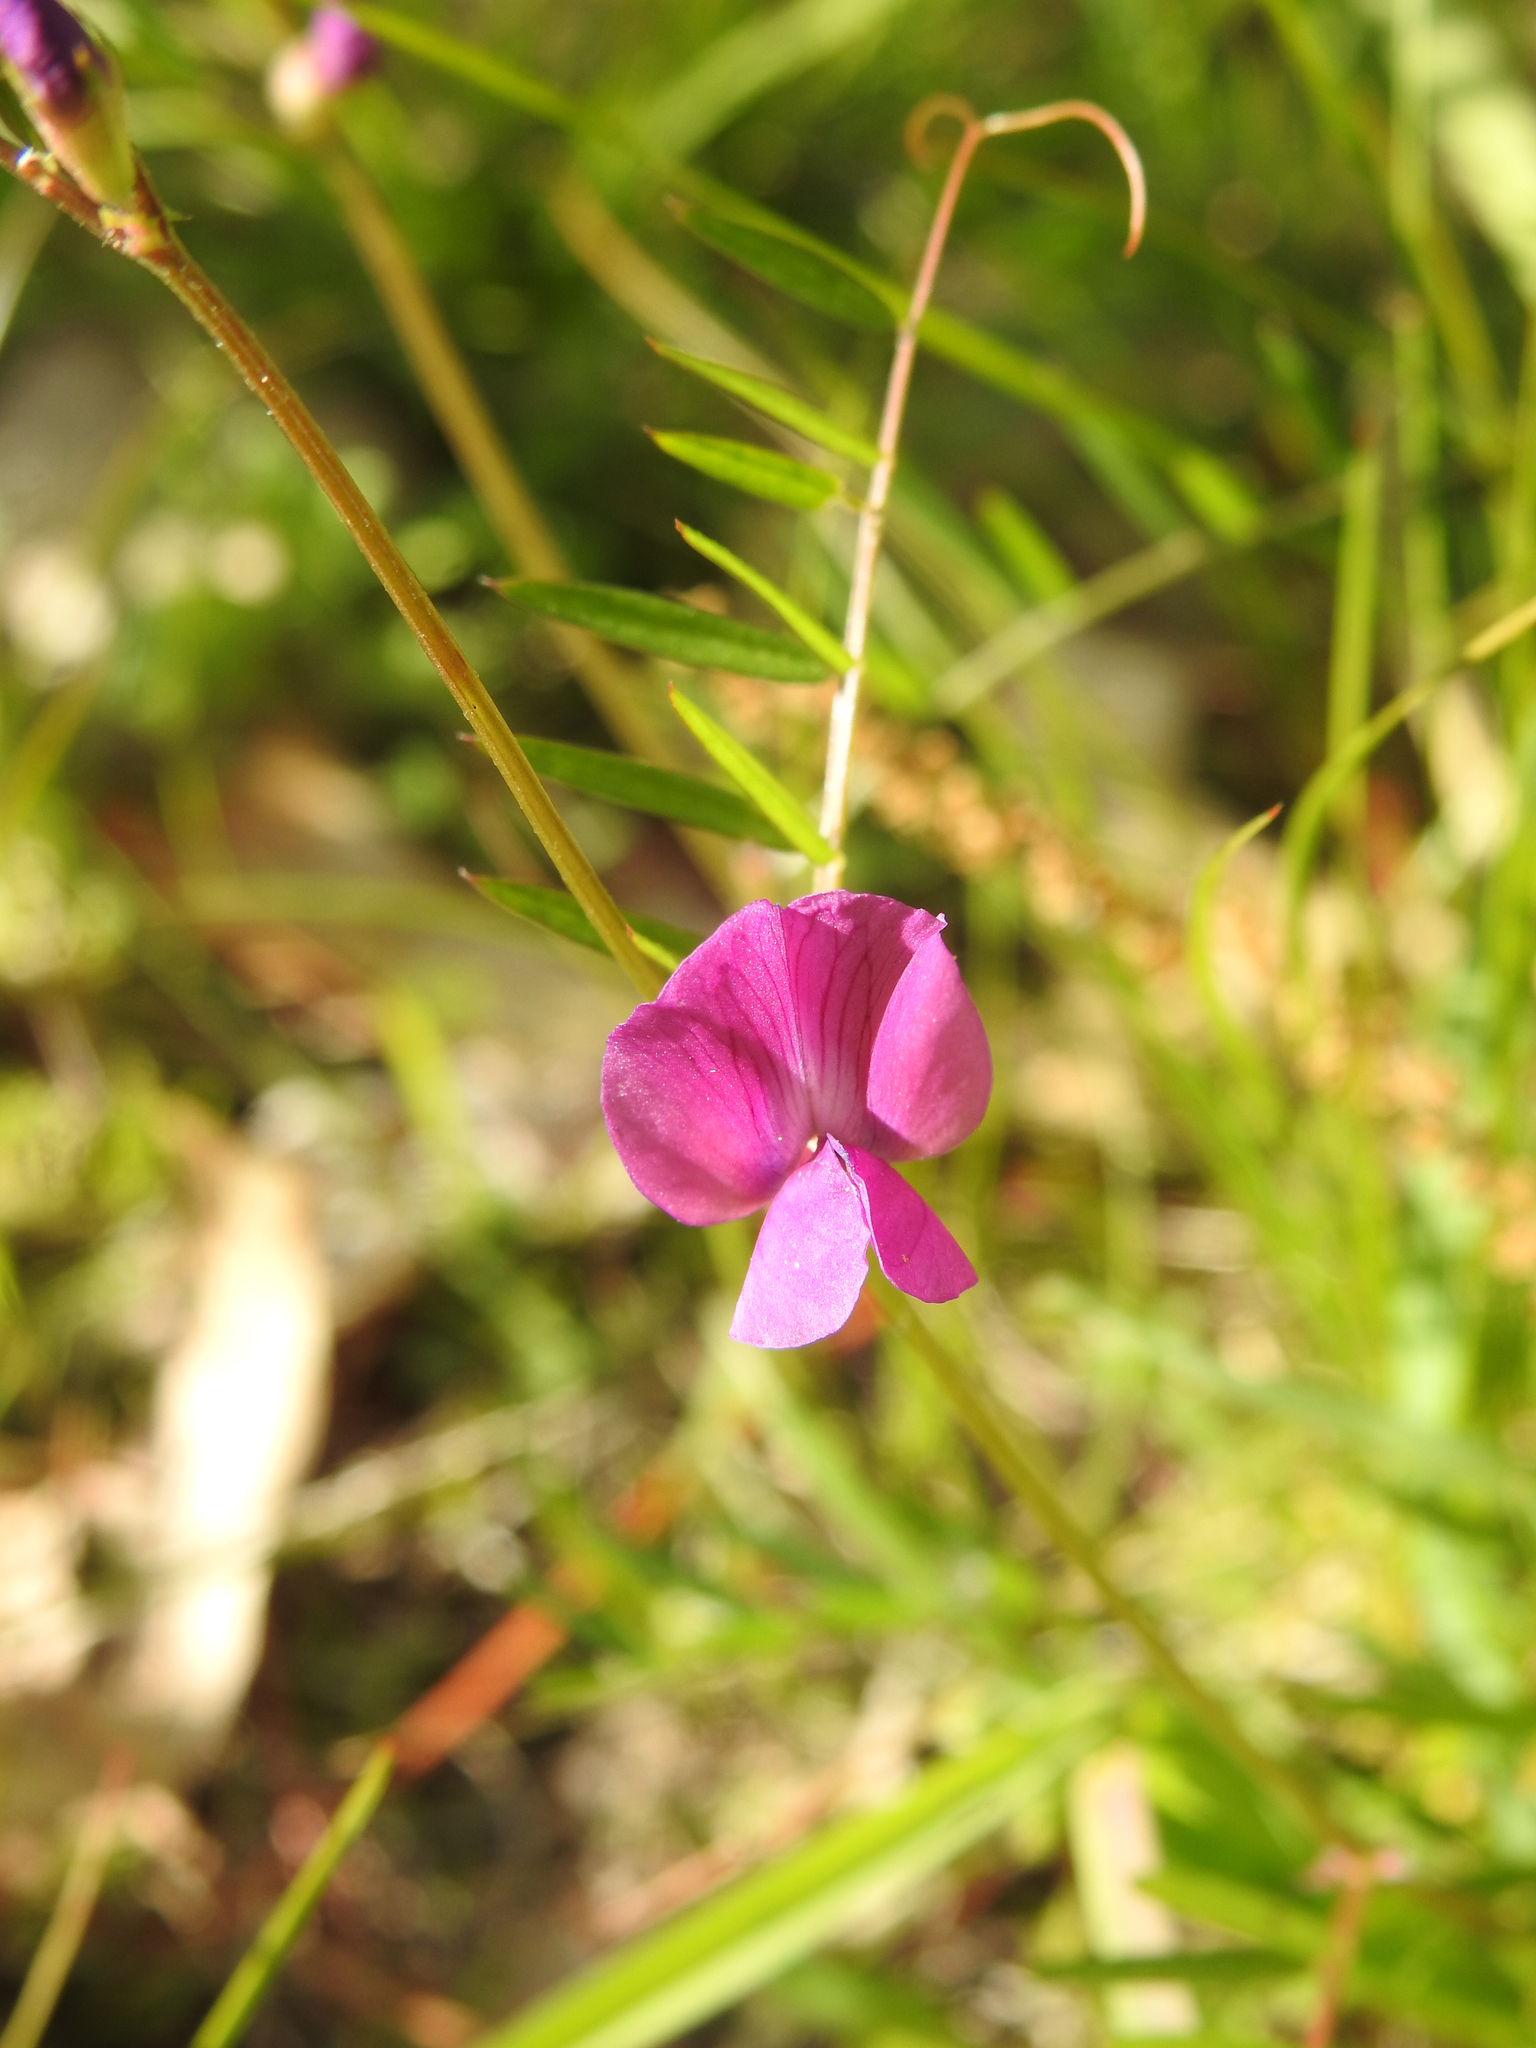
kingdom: Plantae
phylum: Tracheophyta
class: Magnoliopsida
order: Fabales
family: Fabaceae
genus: Vicia
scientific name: Vicia sativa
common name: Garden vetch
